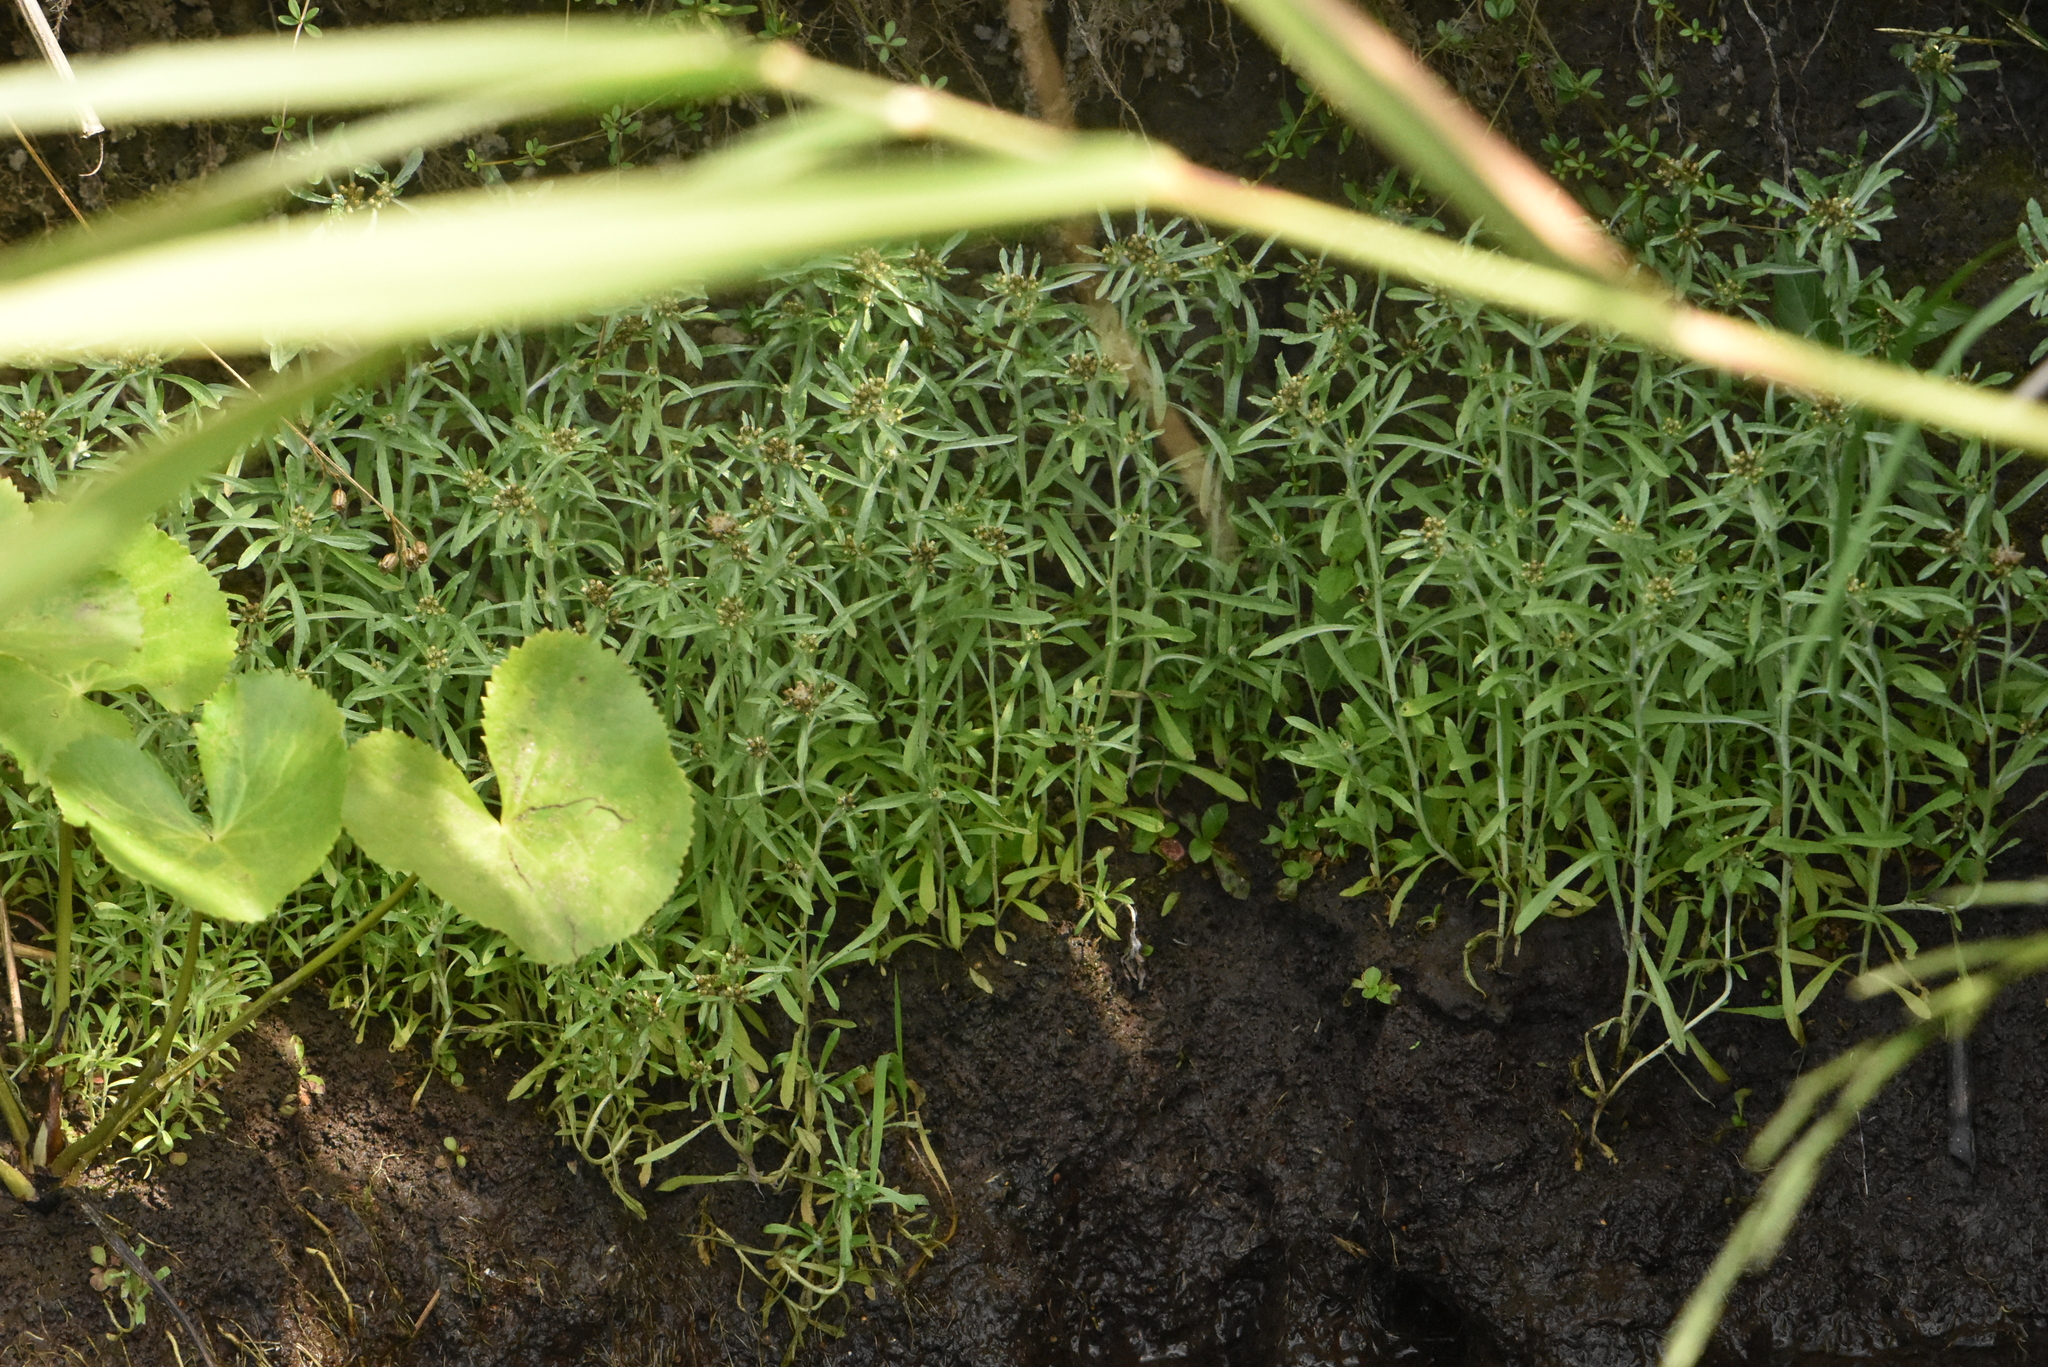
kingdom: Plantae
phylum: Tracheophyta
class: Magnoliopsida
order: Asterales
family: Asteraceae
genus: Gnaphalium
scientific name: Gnaphalium uliginosum
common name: Marsh cudweed
